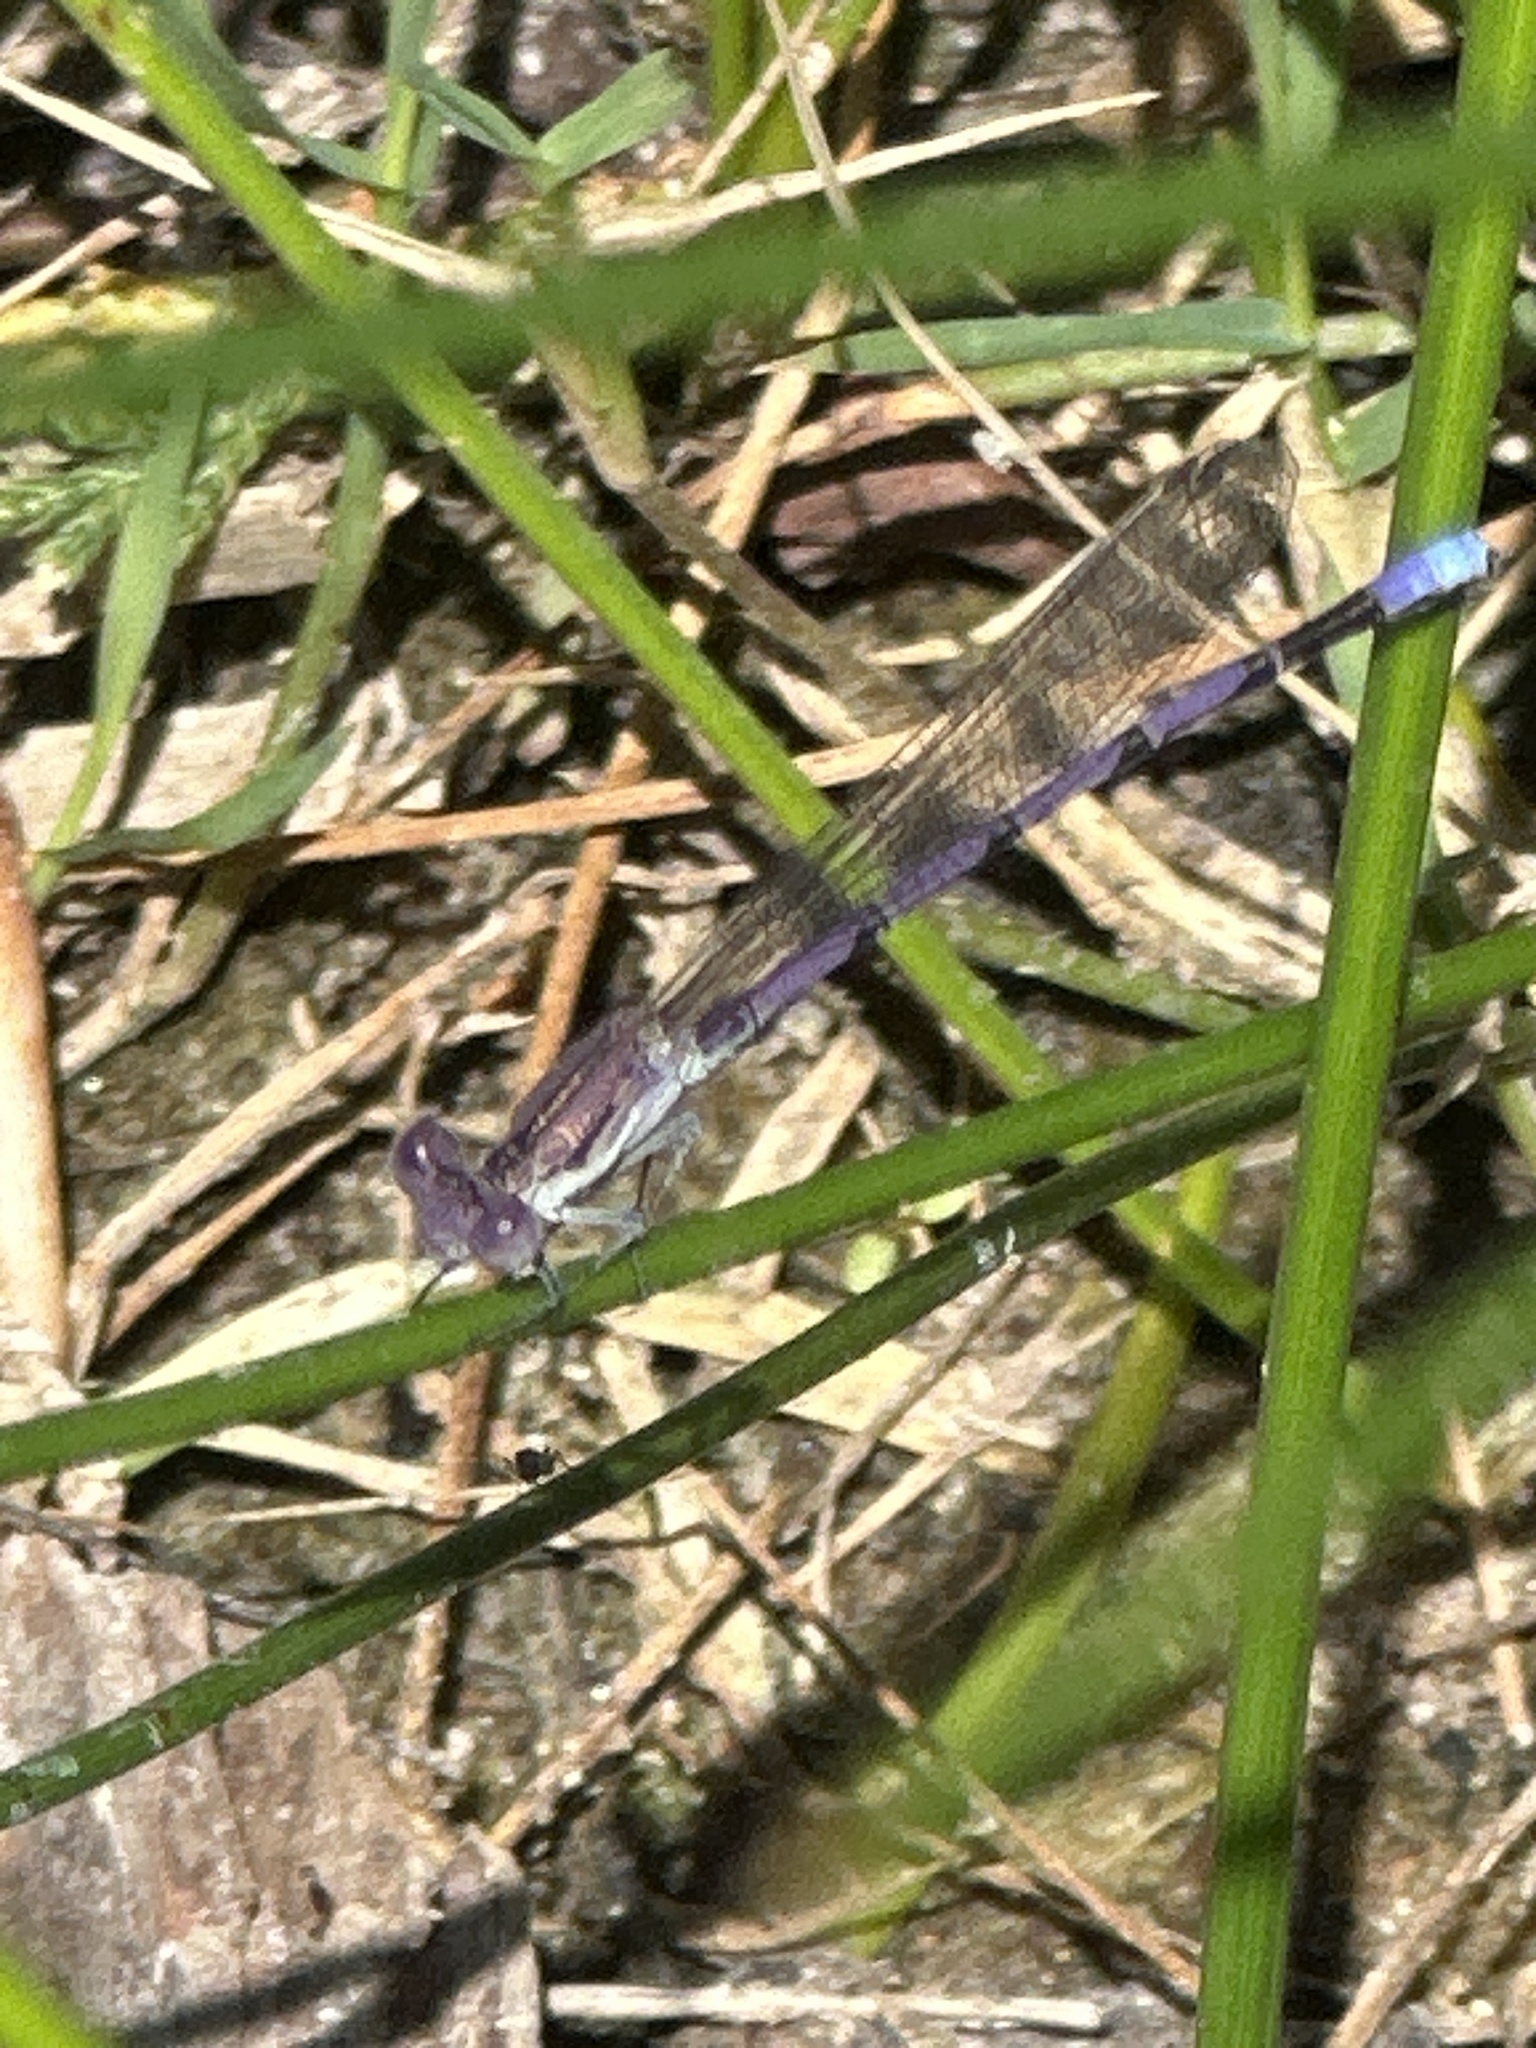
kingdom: Animalia
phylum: Arthropoda
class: Insecta
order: Odonata
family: Coenagrionidae
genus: Argia
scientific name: Argia fumipennis
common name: Variable dancer
